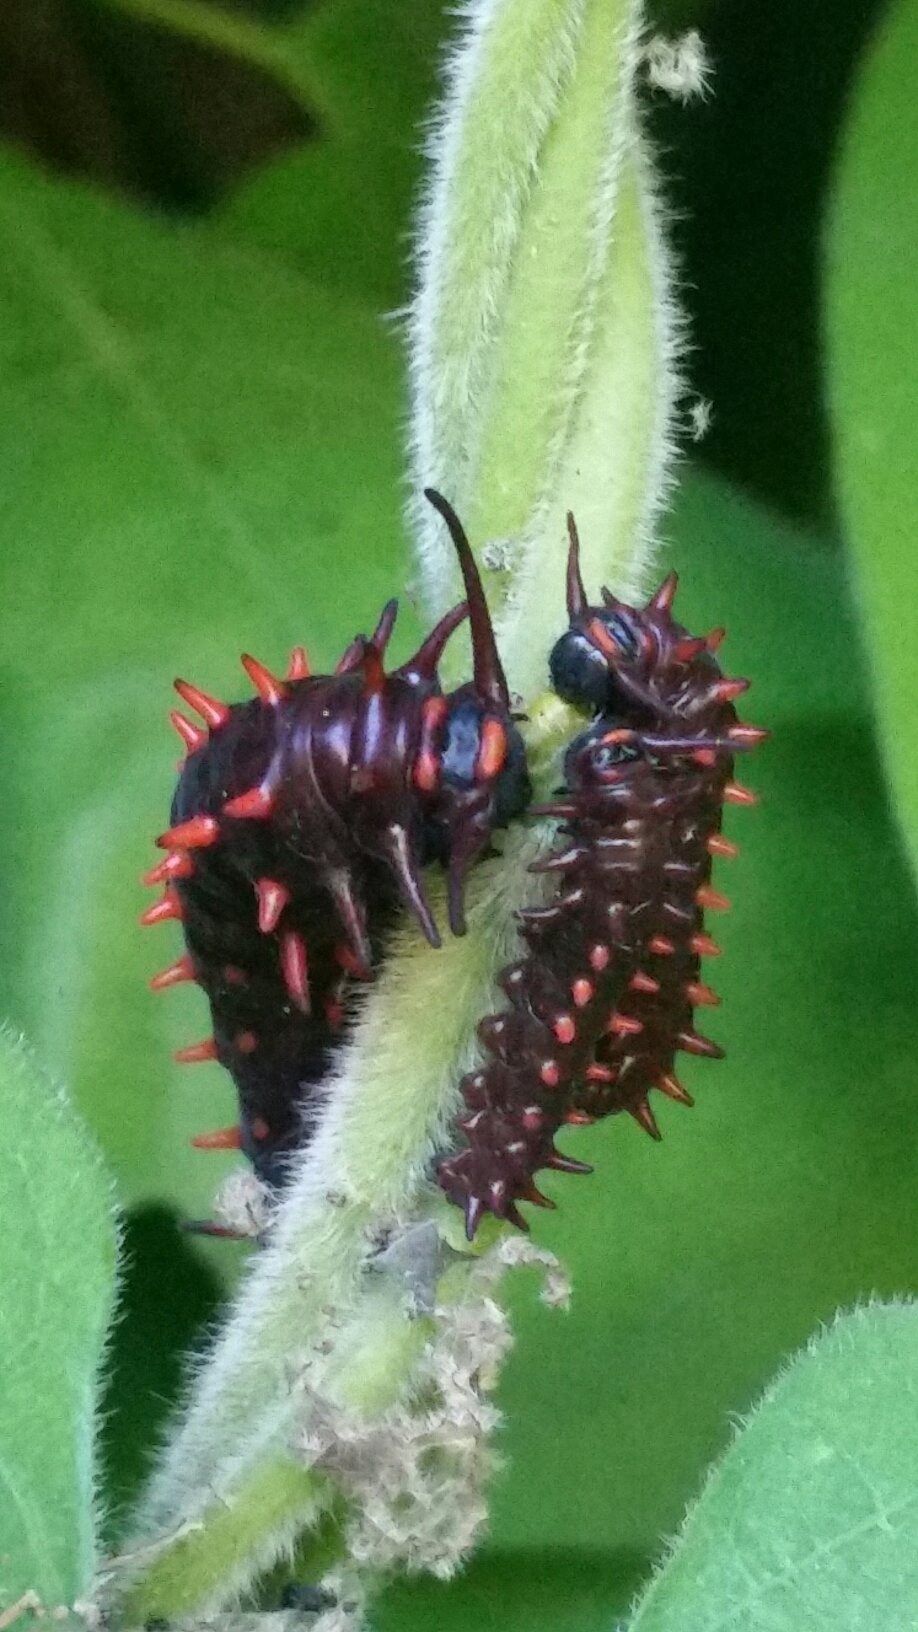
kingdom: Animalia
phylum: Arthropoda
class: Insecta
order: Lepidoptera
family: Papilionidae
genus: Battus
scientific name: Battus philenor
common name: Pipevine swallowtail
